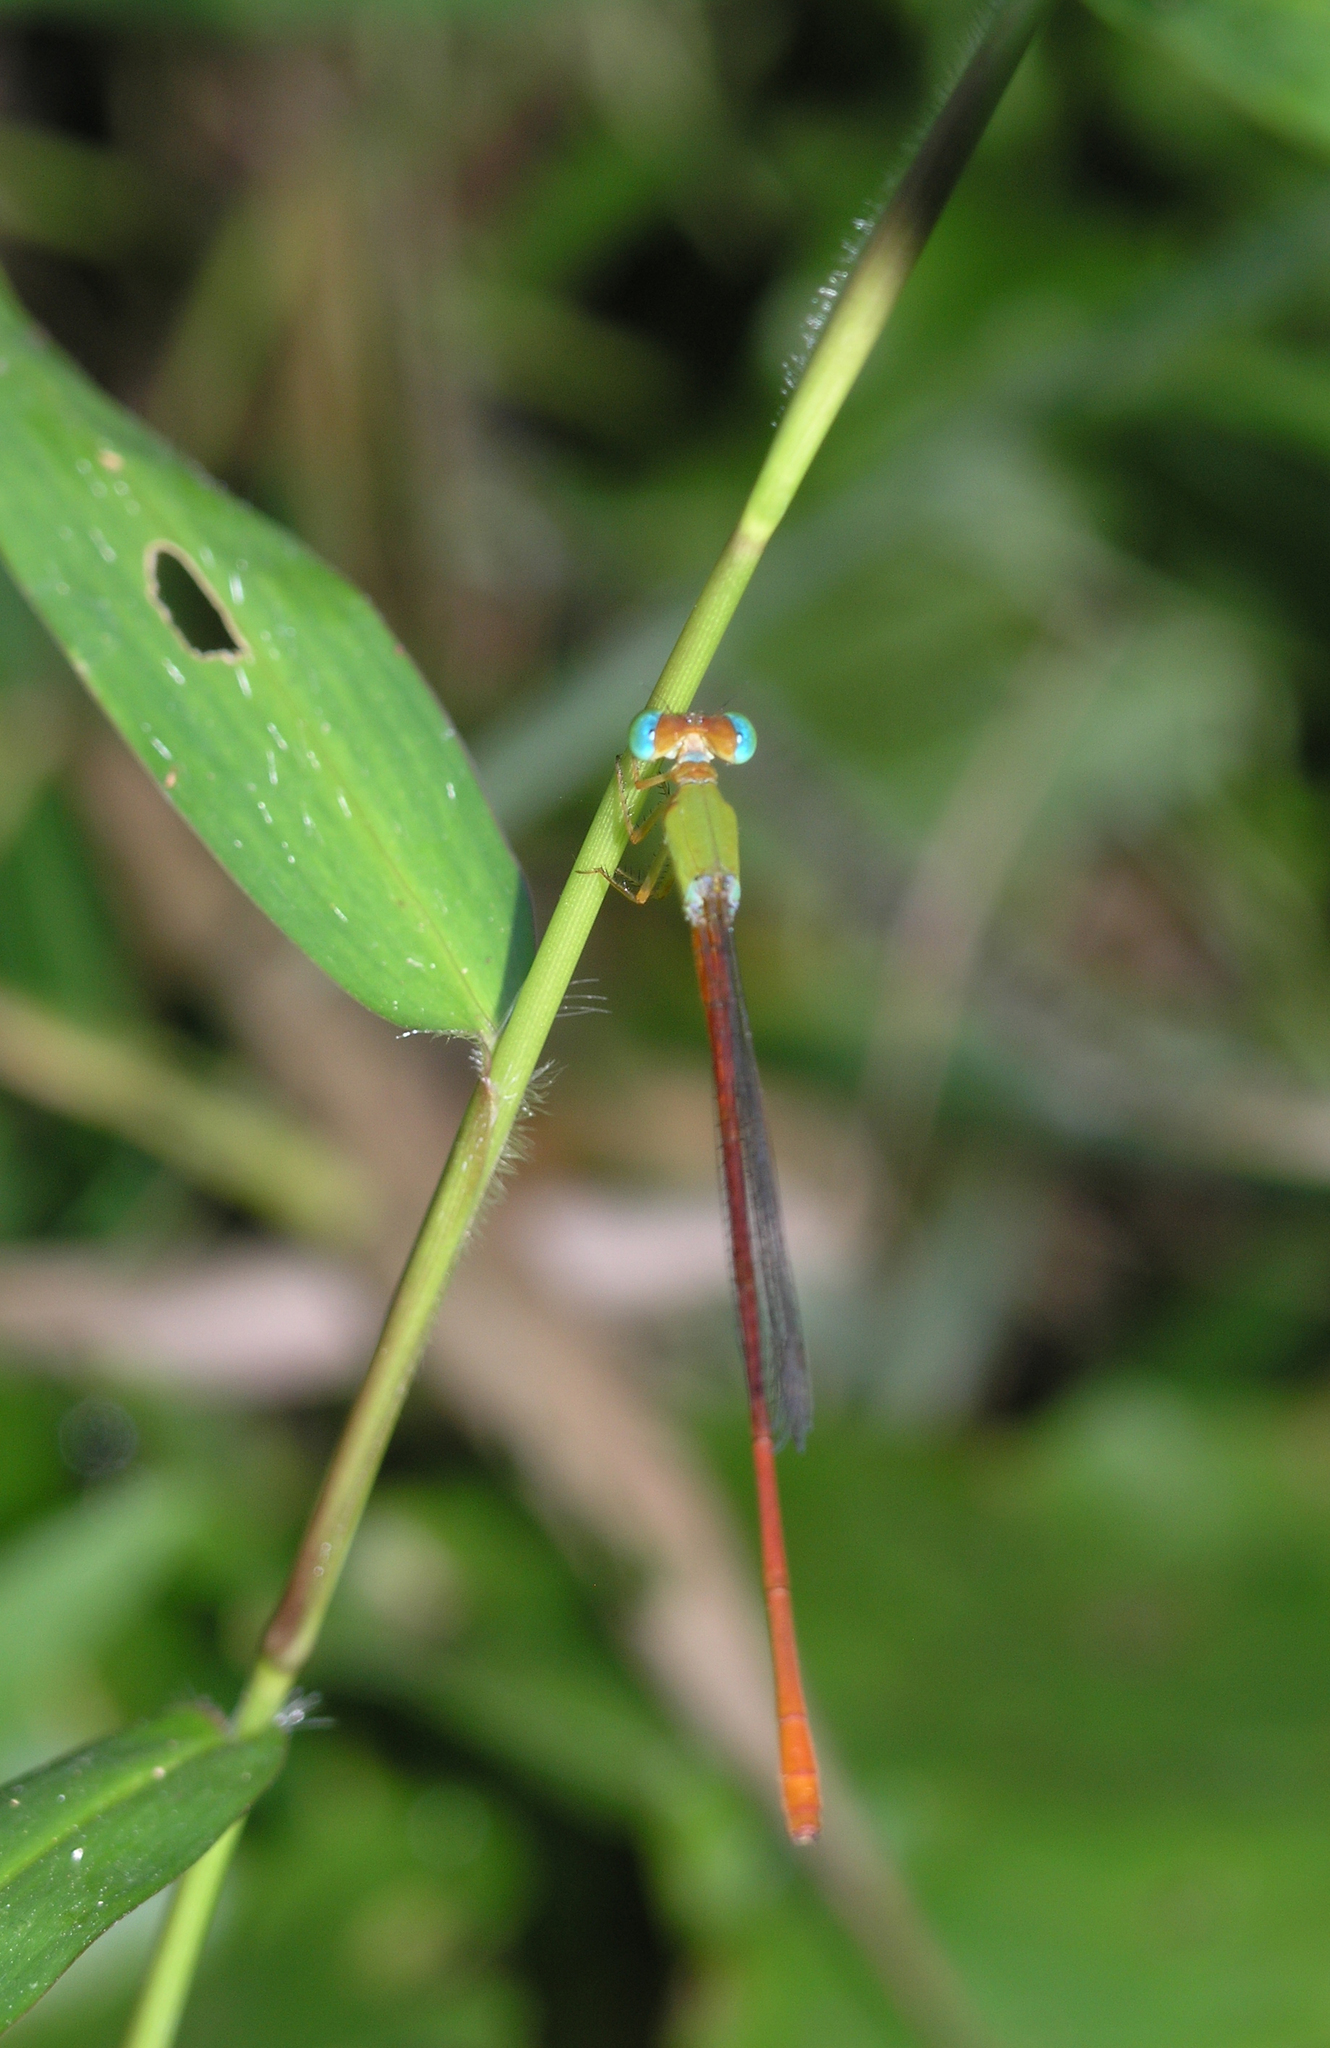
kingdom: Animalia
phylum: Arthropoda
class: Insecta
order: Odonata
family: Coenagrionidae
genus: Ceriagrion
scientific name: Ceriagrion cerinorubellum
